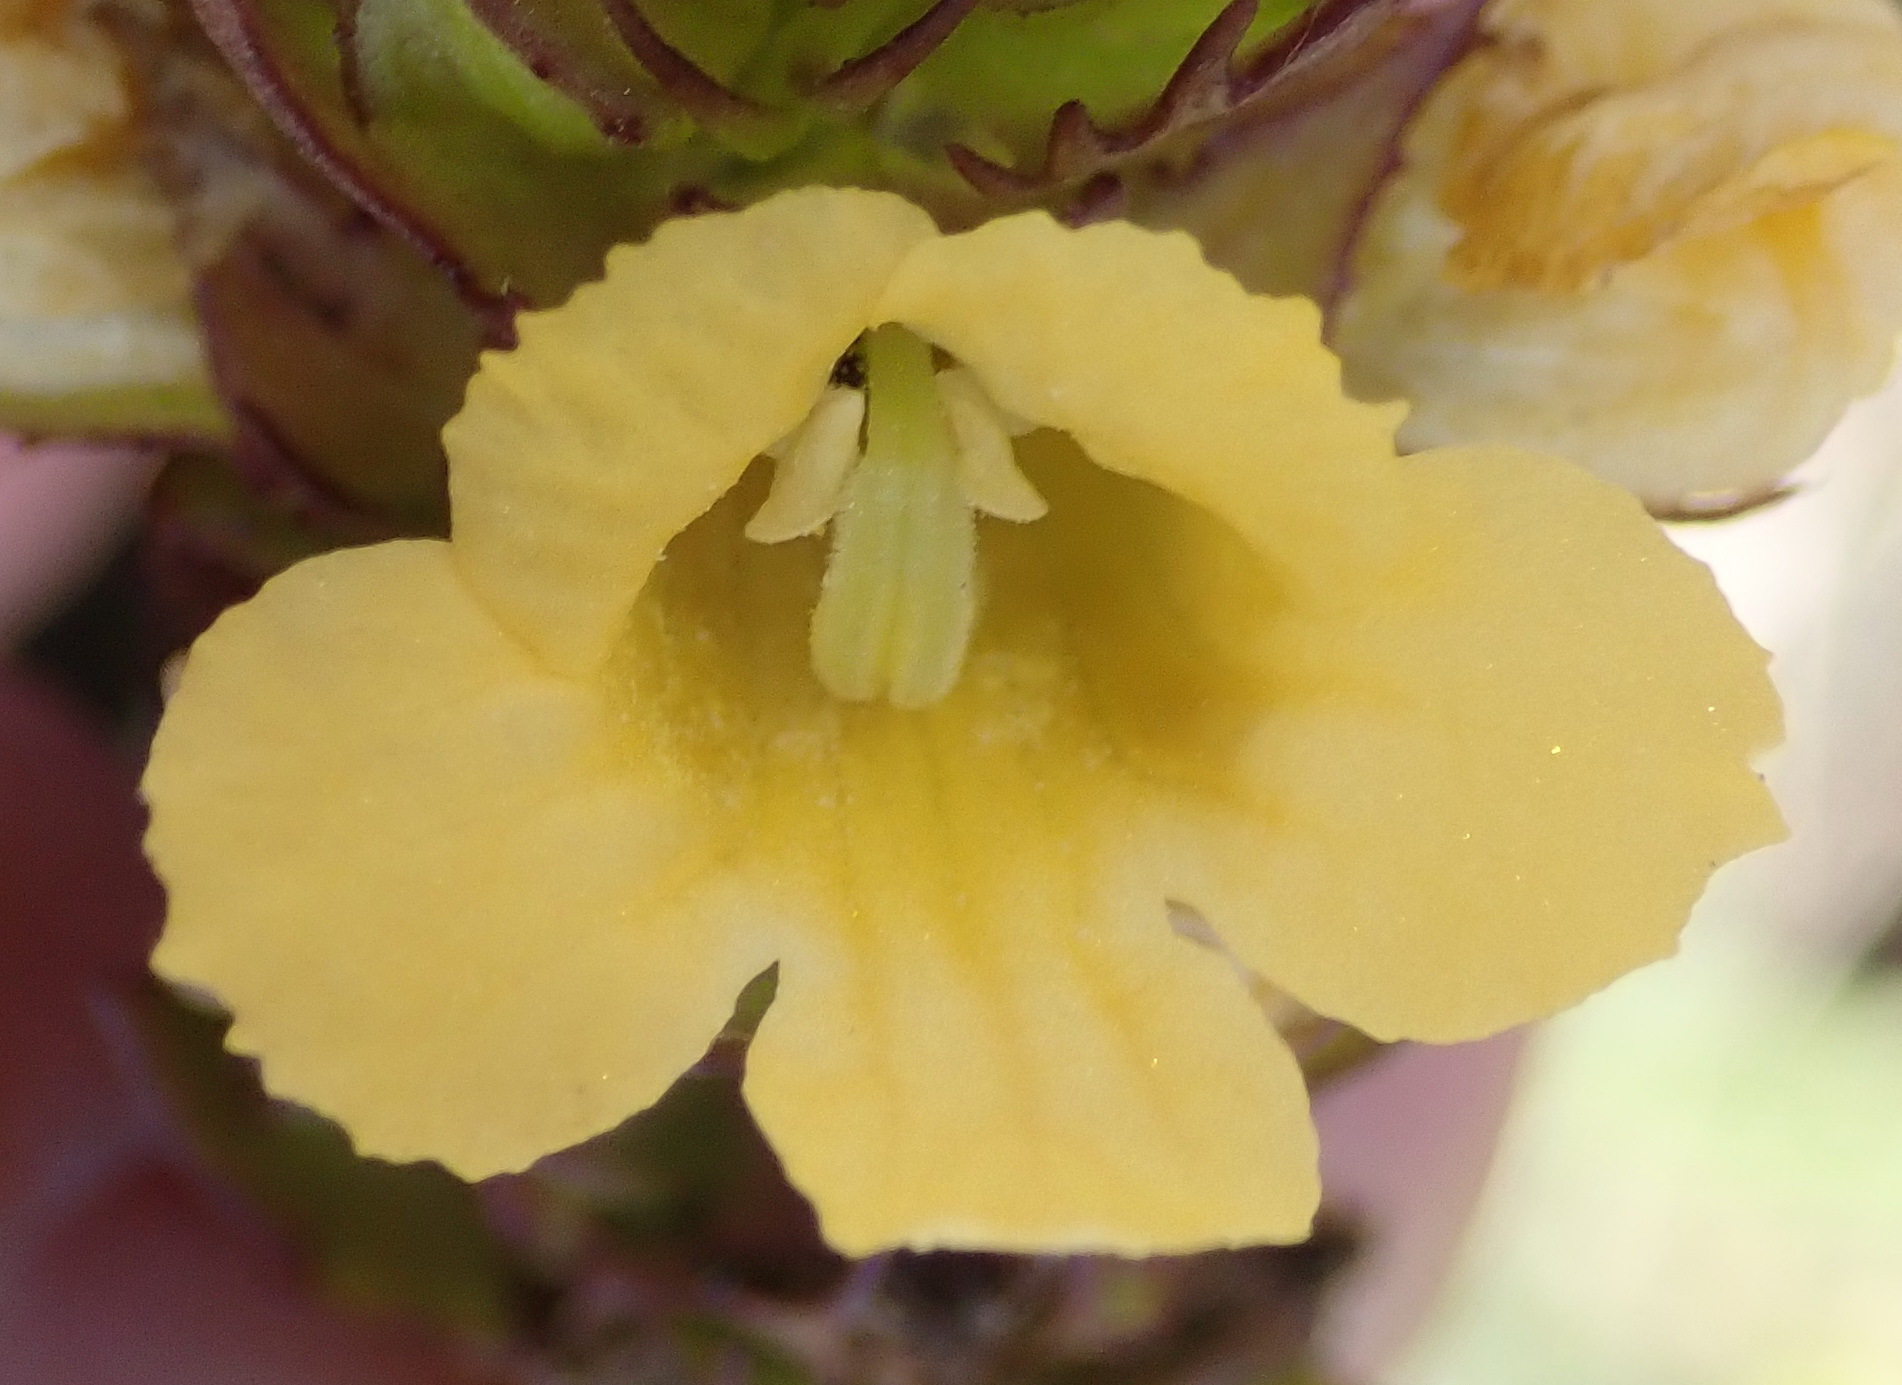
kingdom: Plantae
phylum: Tracheophyta
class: Magnoliopsida
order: Lamiales
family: Orobanchaceae
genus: Alectra
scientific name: Alectra sessiliflora
